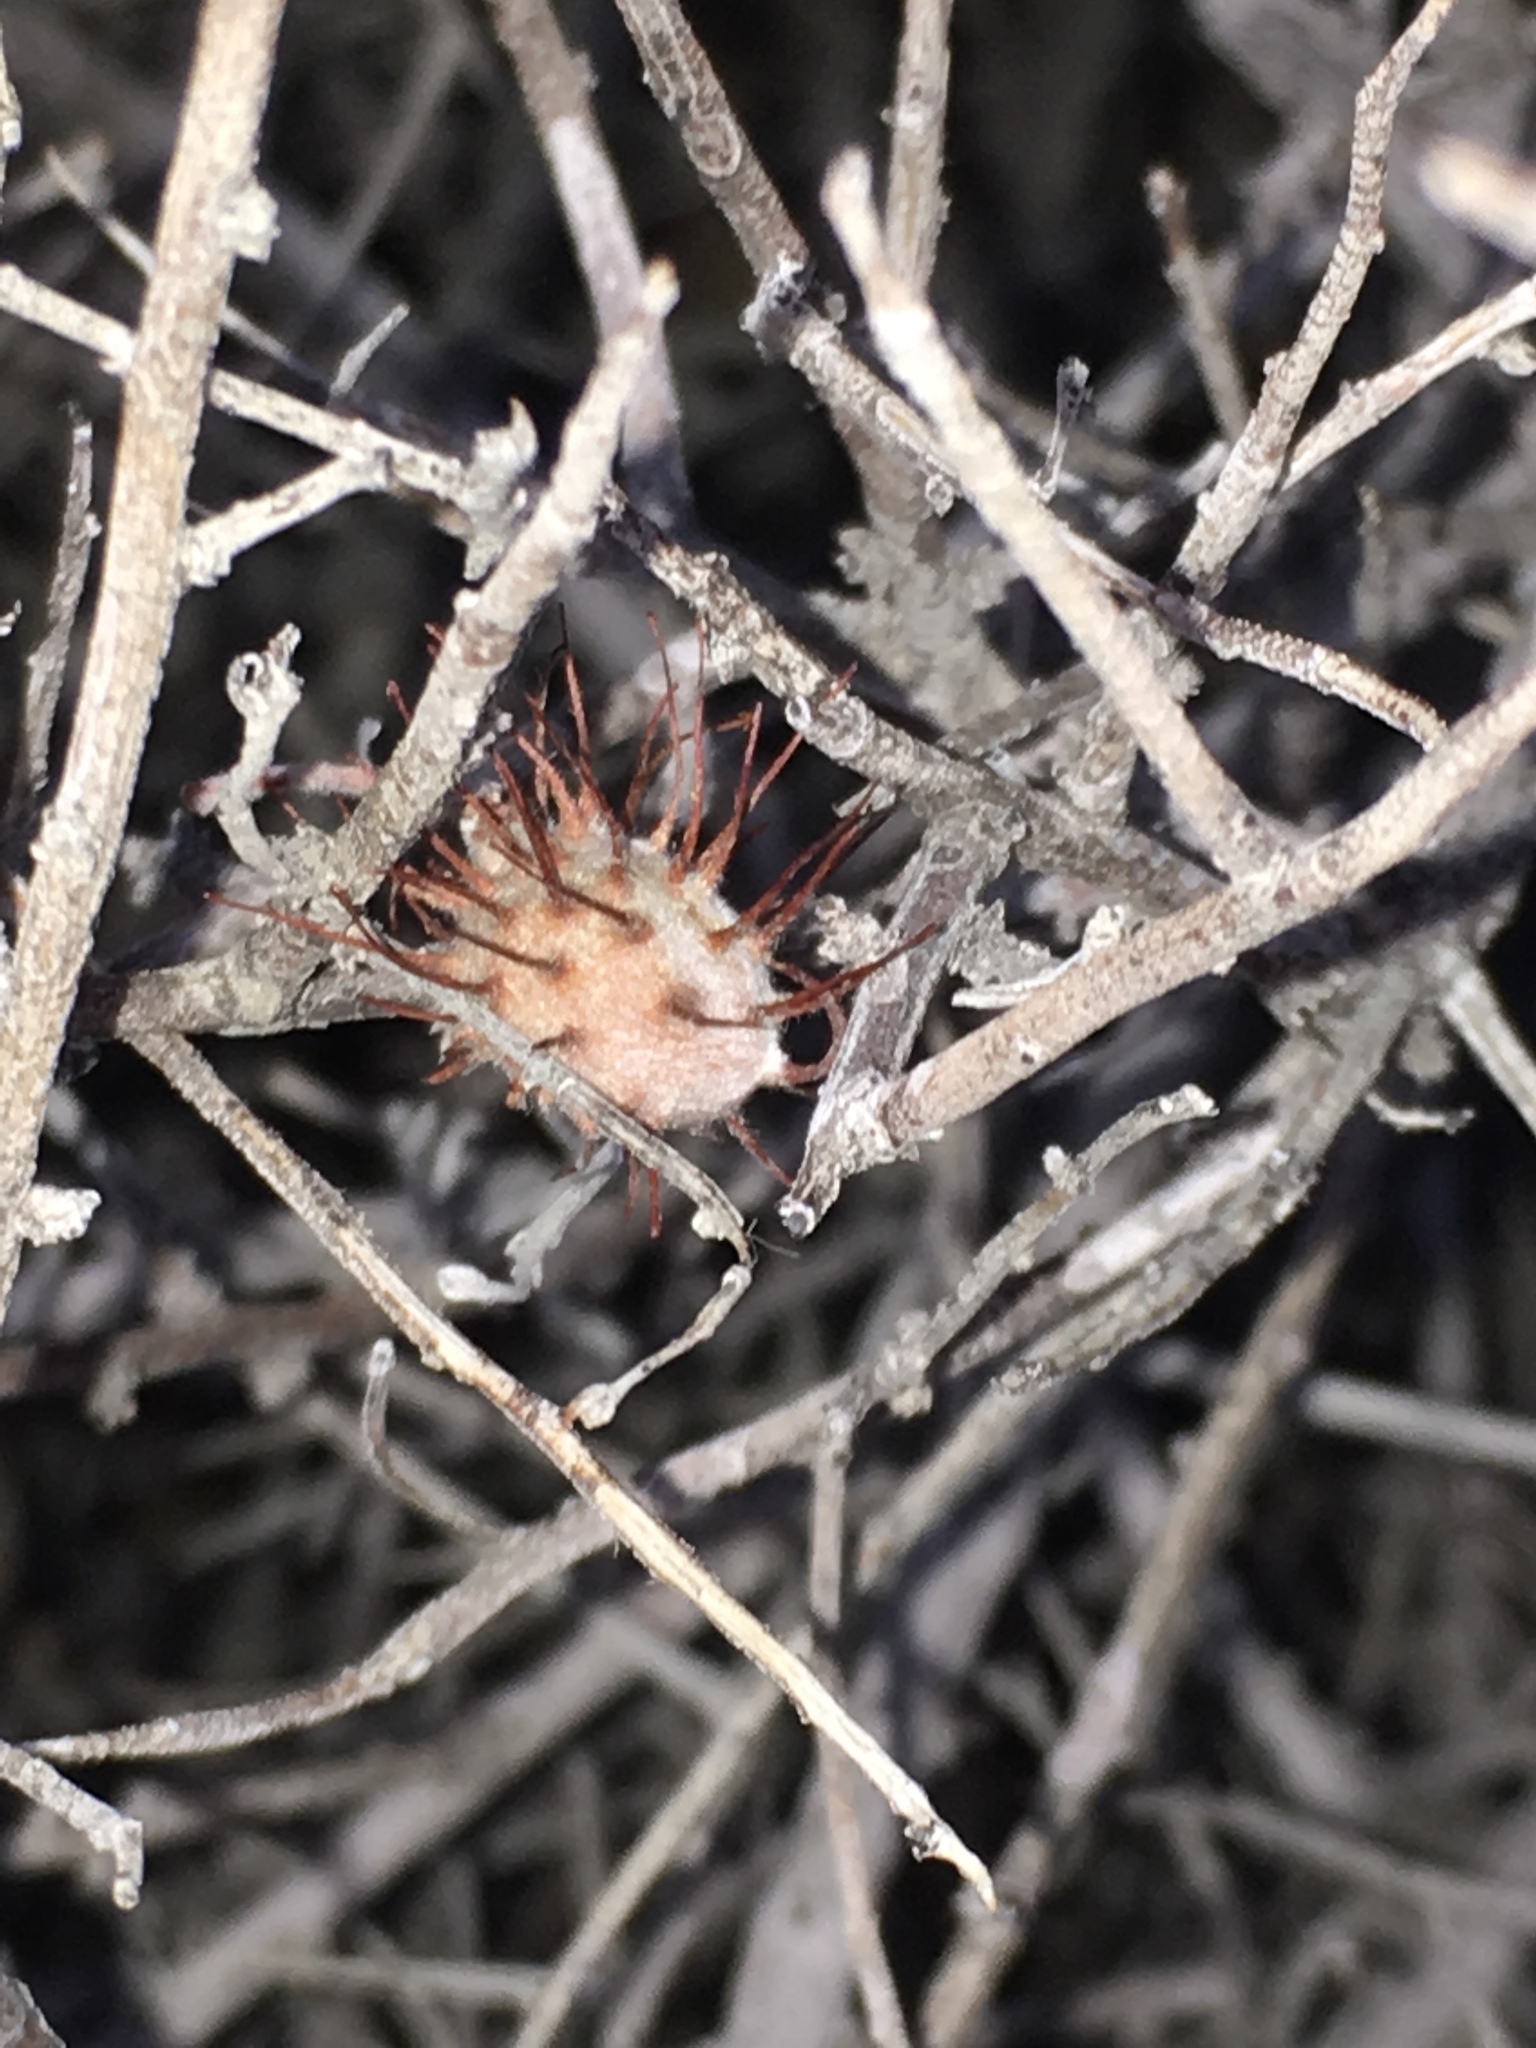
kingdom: Plantae
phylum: Tracheophyta
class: Magnoliopsida
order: Zygophyllales
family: Krameriaceae
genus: Krameria
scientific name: Krameria bicolor
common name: White ratany
